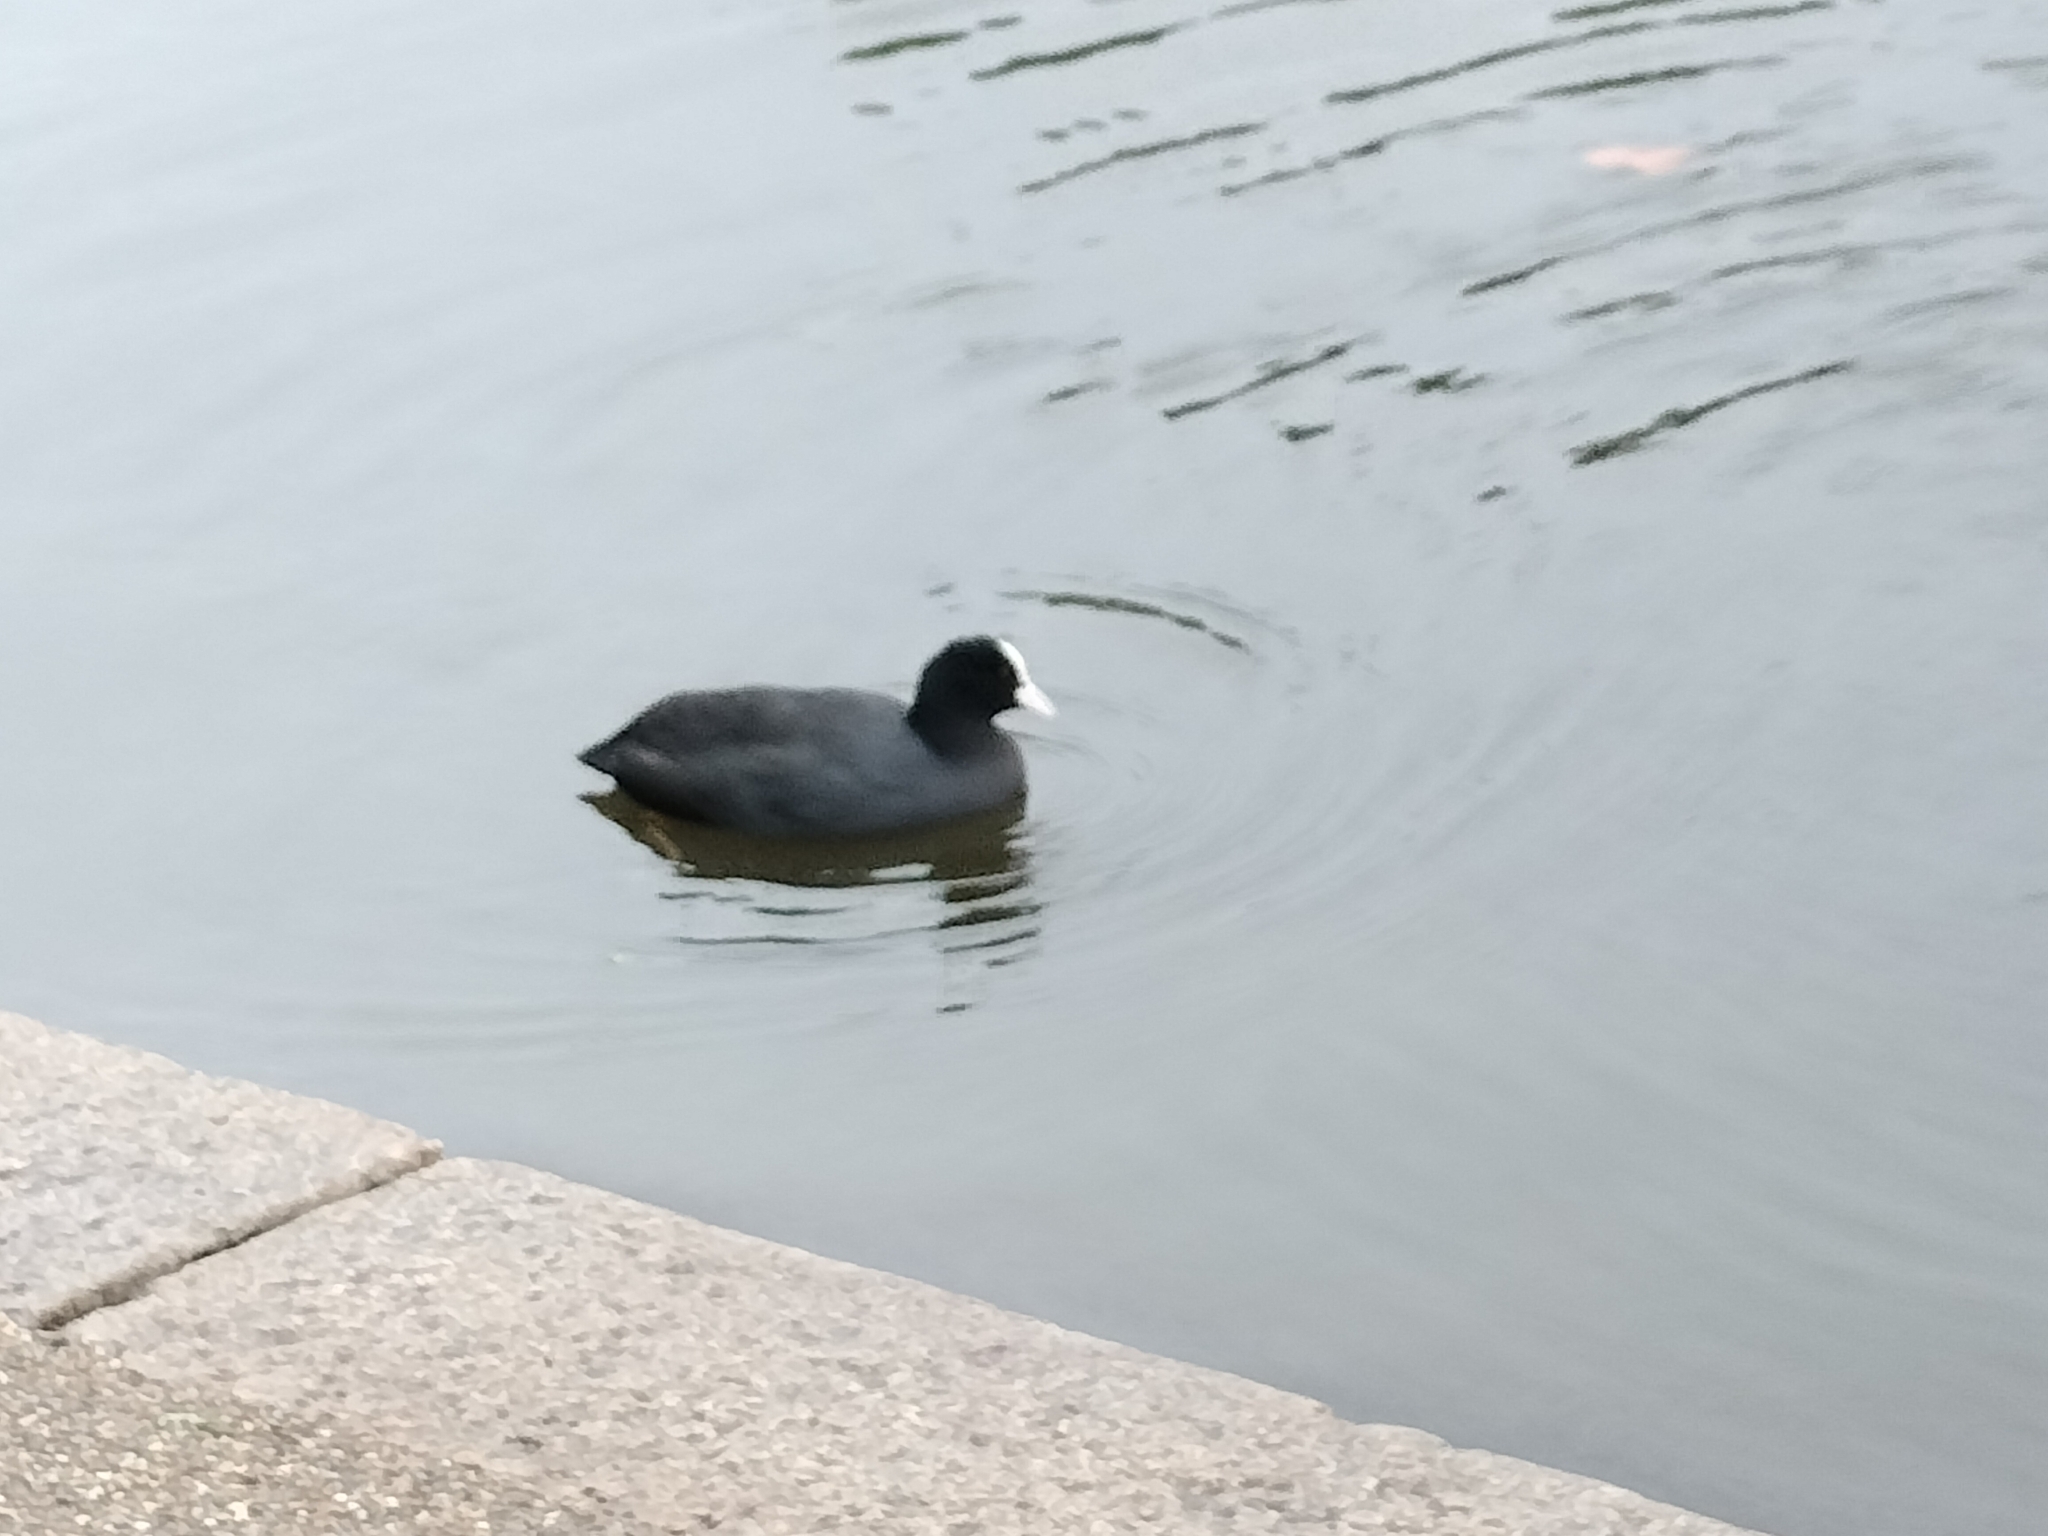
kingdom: Animalia
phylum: Chordata
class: Aves
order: Gruiformes
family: Rallidae
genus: Fulica
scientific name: Fulica atra
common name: Eurasian coot
